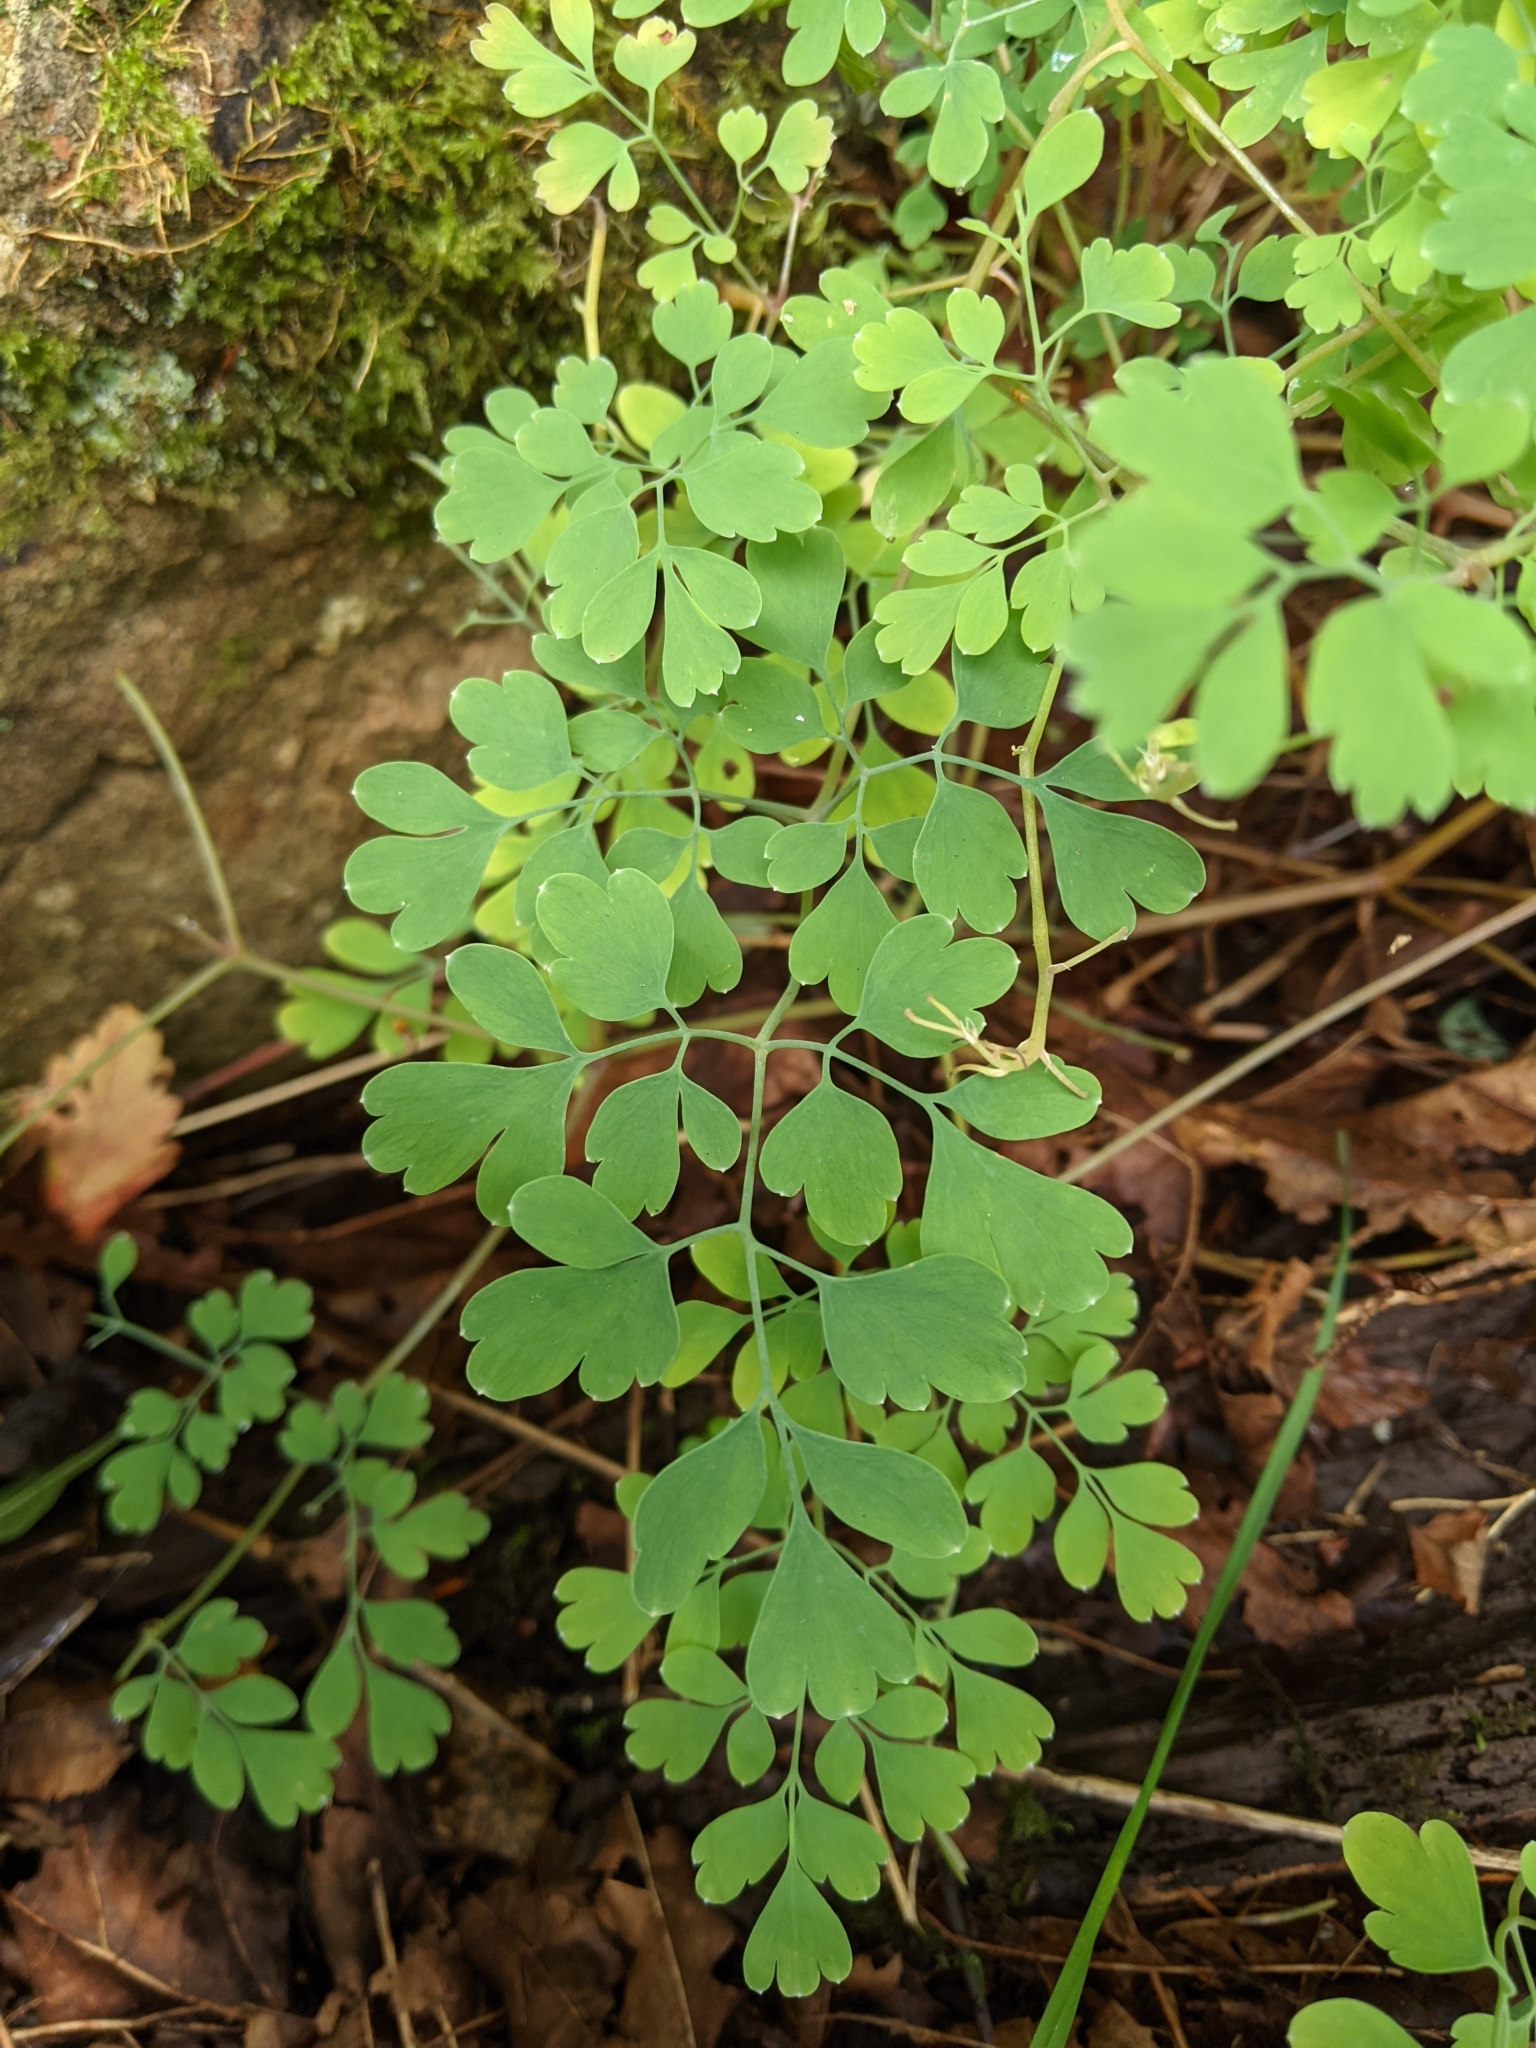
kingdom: Plantae
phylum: Tracheophyta
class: Magnoliopsida
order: Ranunculales
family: Papaveraceae
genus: Pseudofumaria
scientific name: Pseudofumaria lutea
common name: Yellow corydalis
